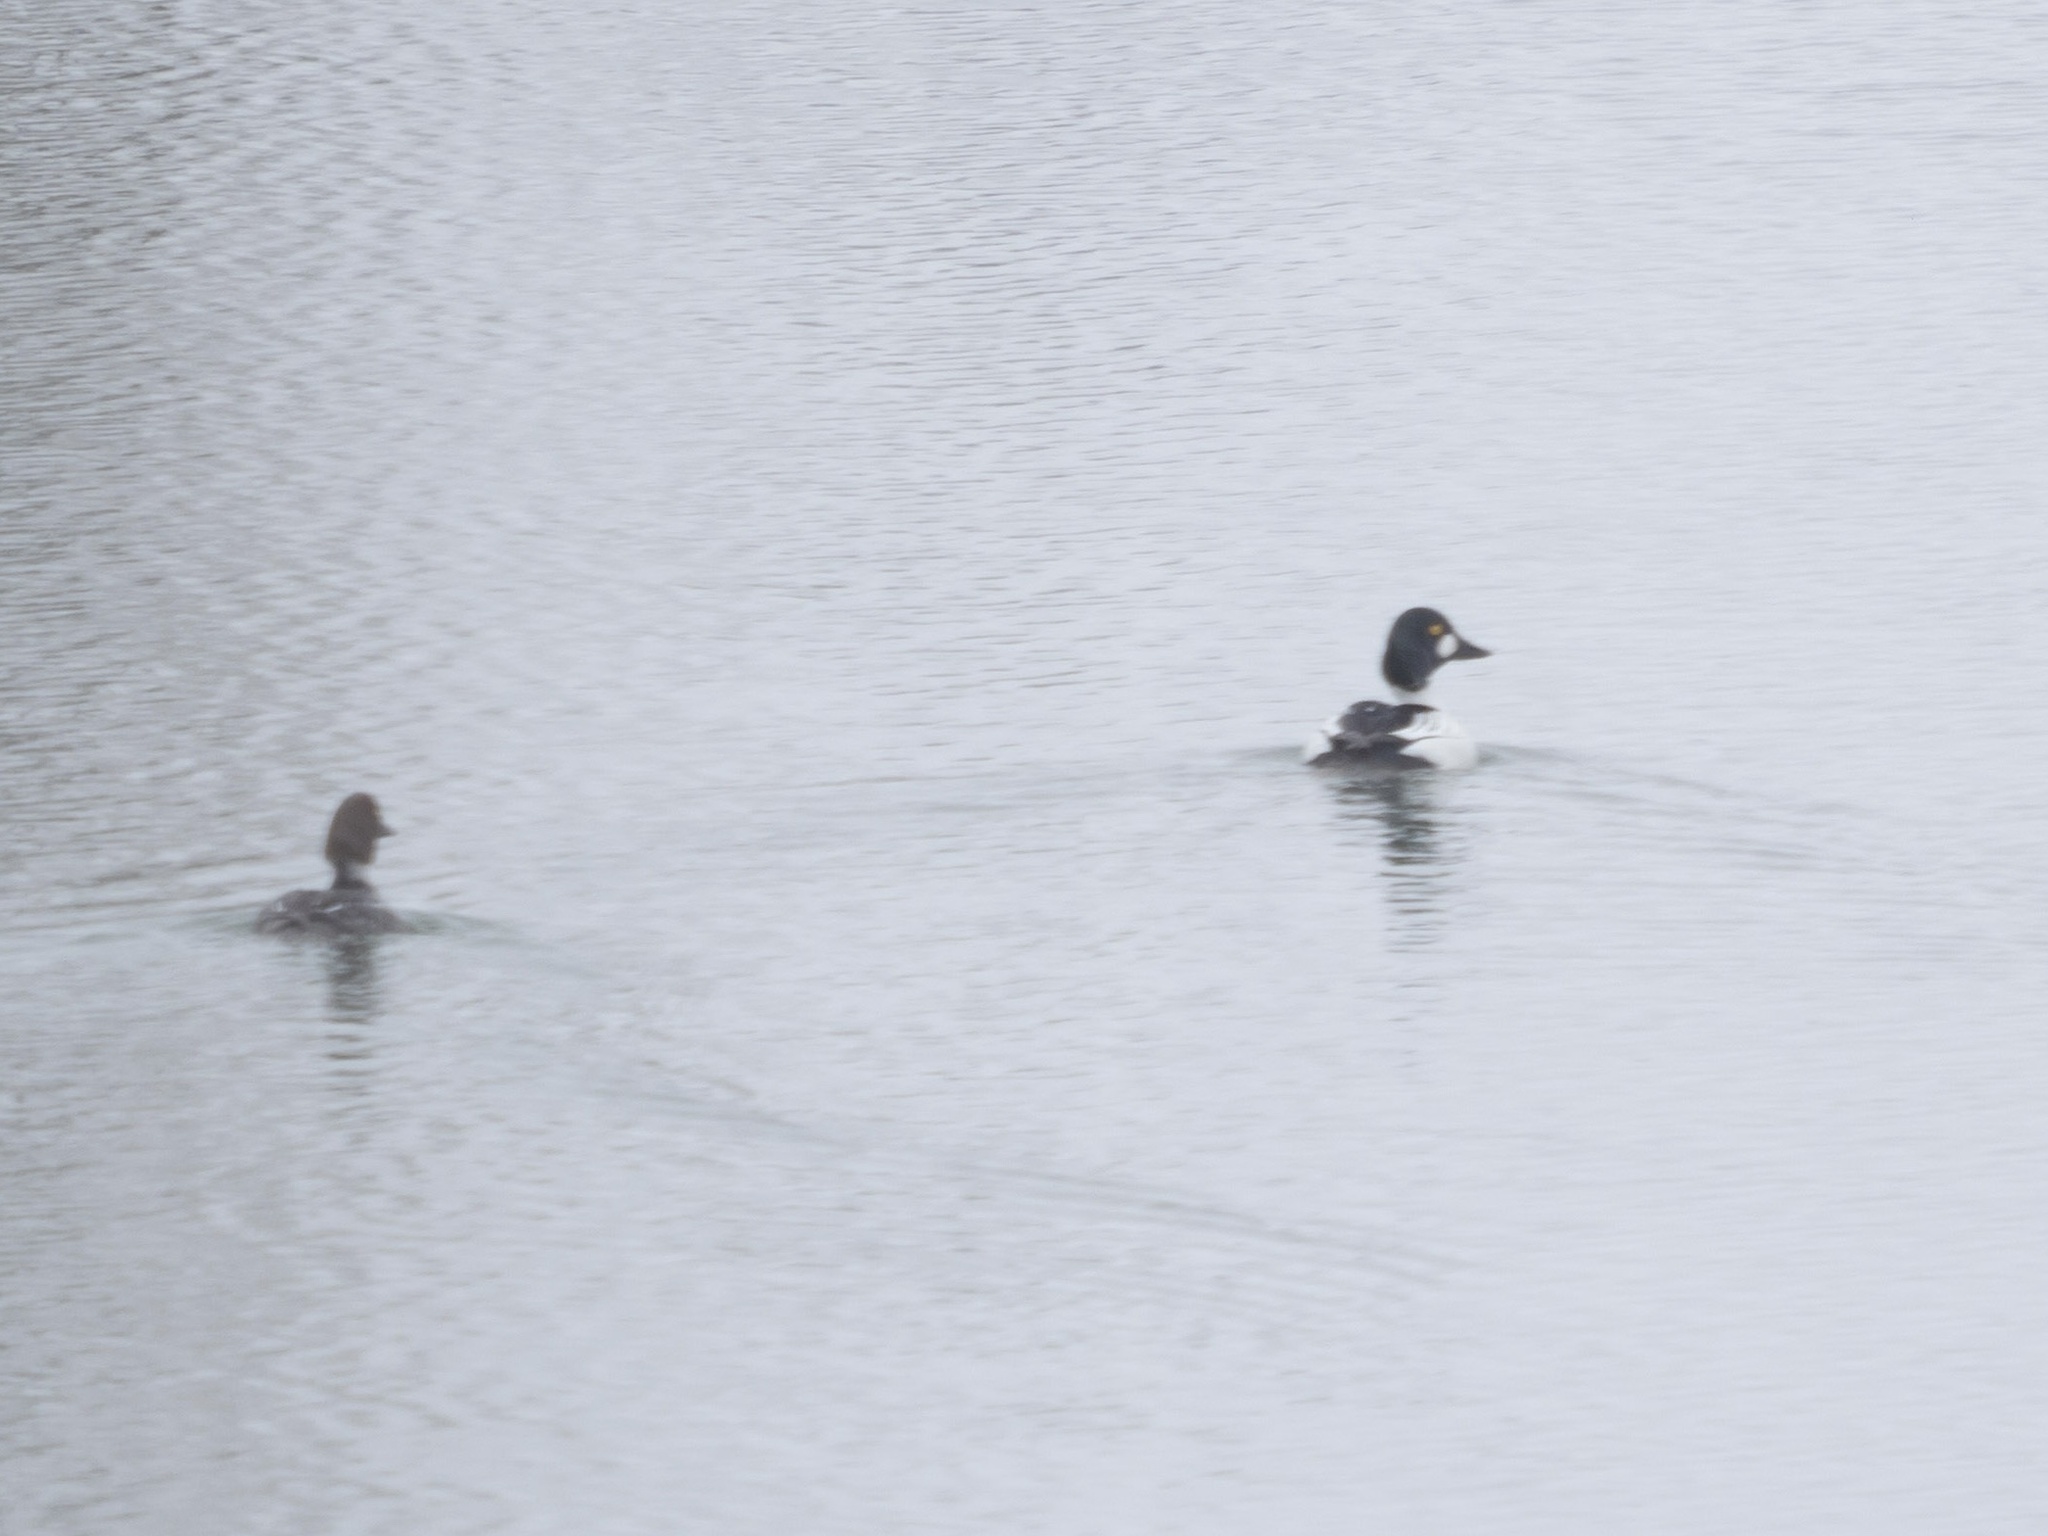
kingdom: Animalia
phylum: Chordata
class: Aves
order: Anseriformes
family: Anatidae
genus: Bucephala
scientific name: Bucephala clangula
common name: Common goldeneye
